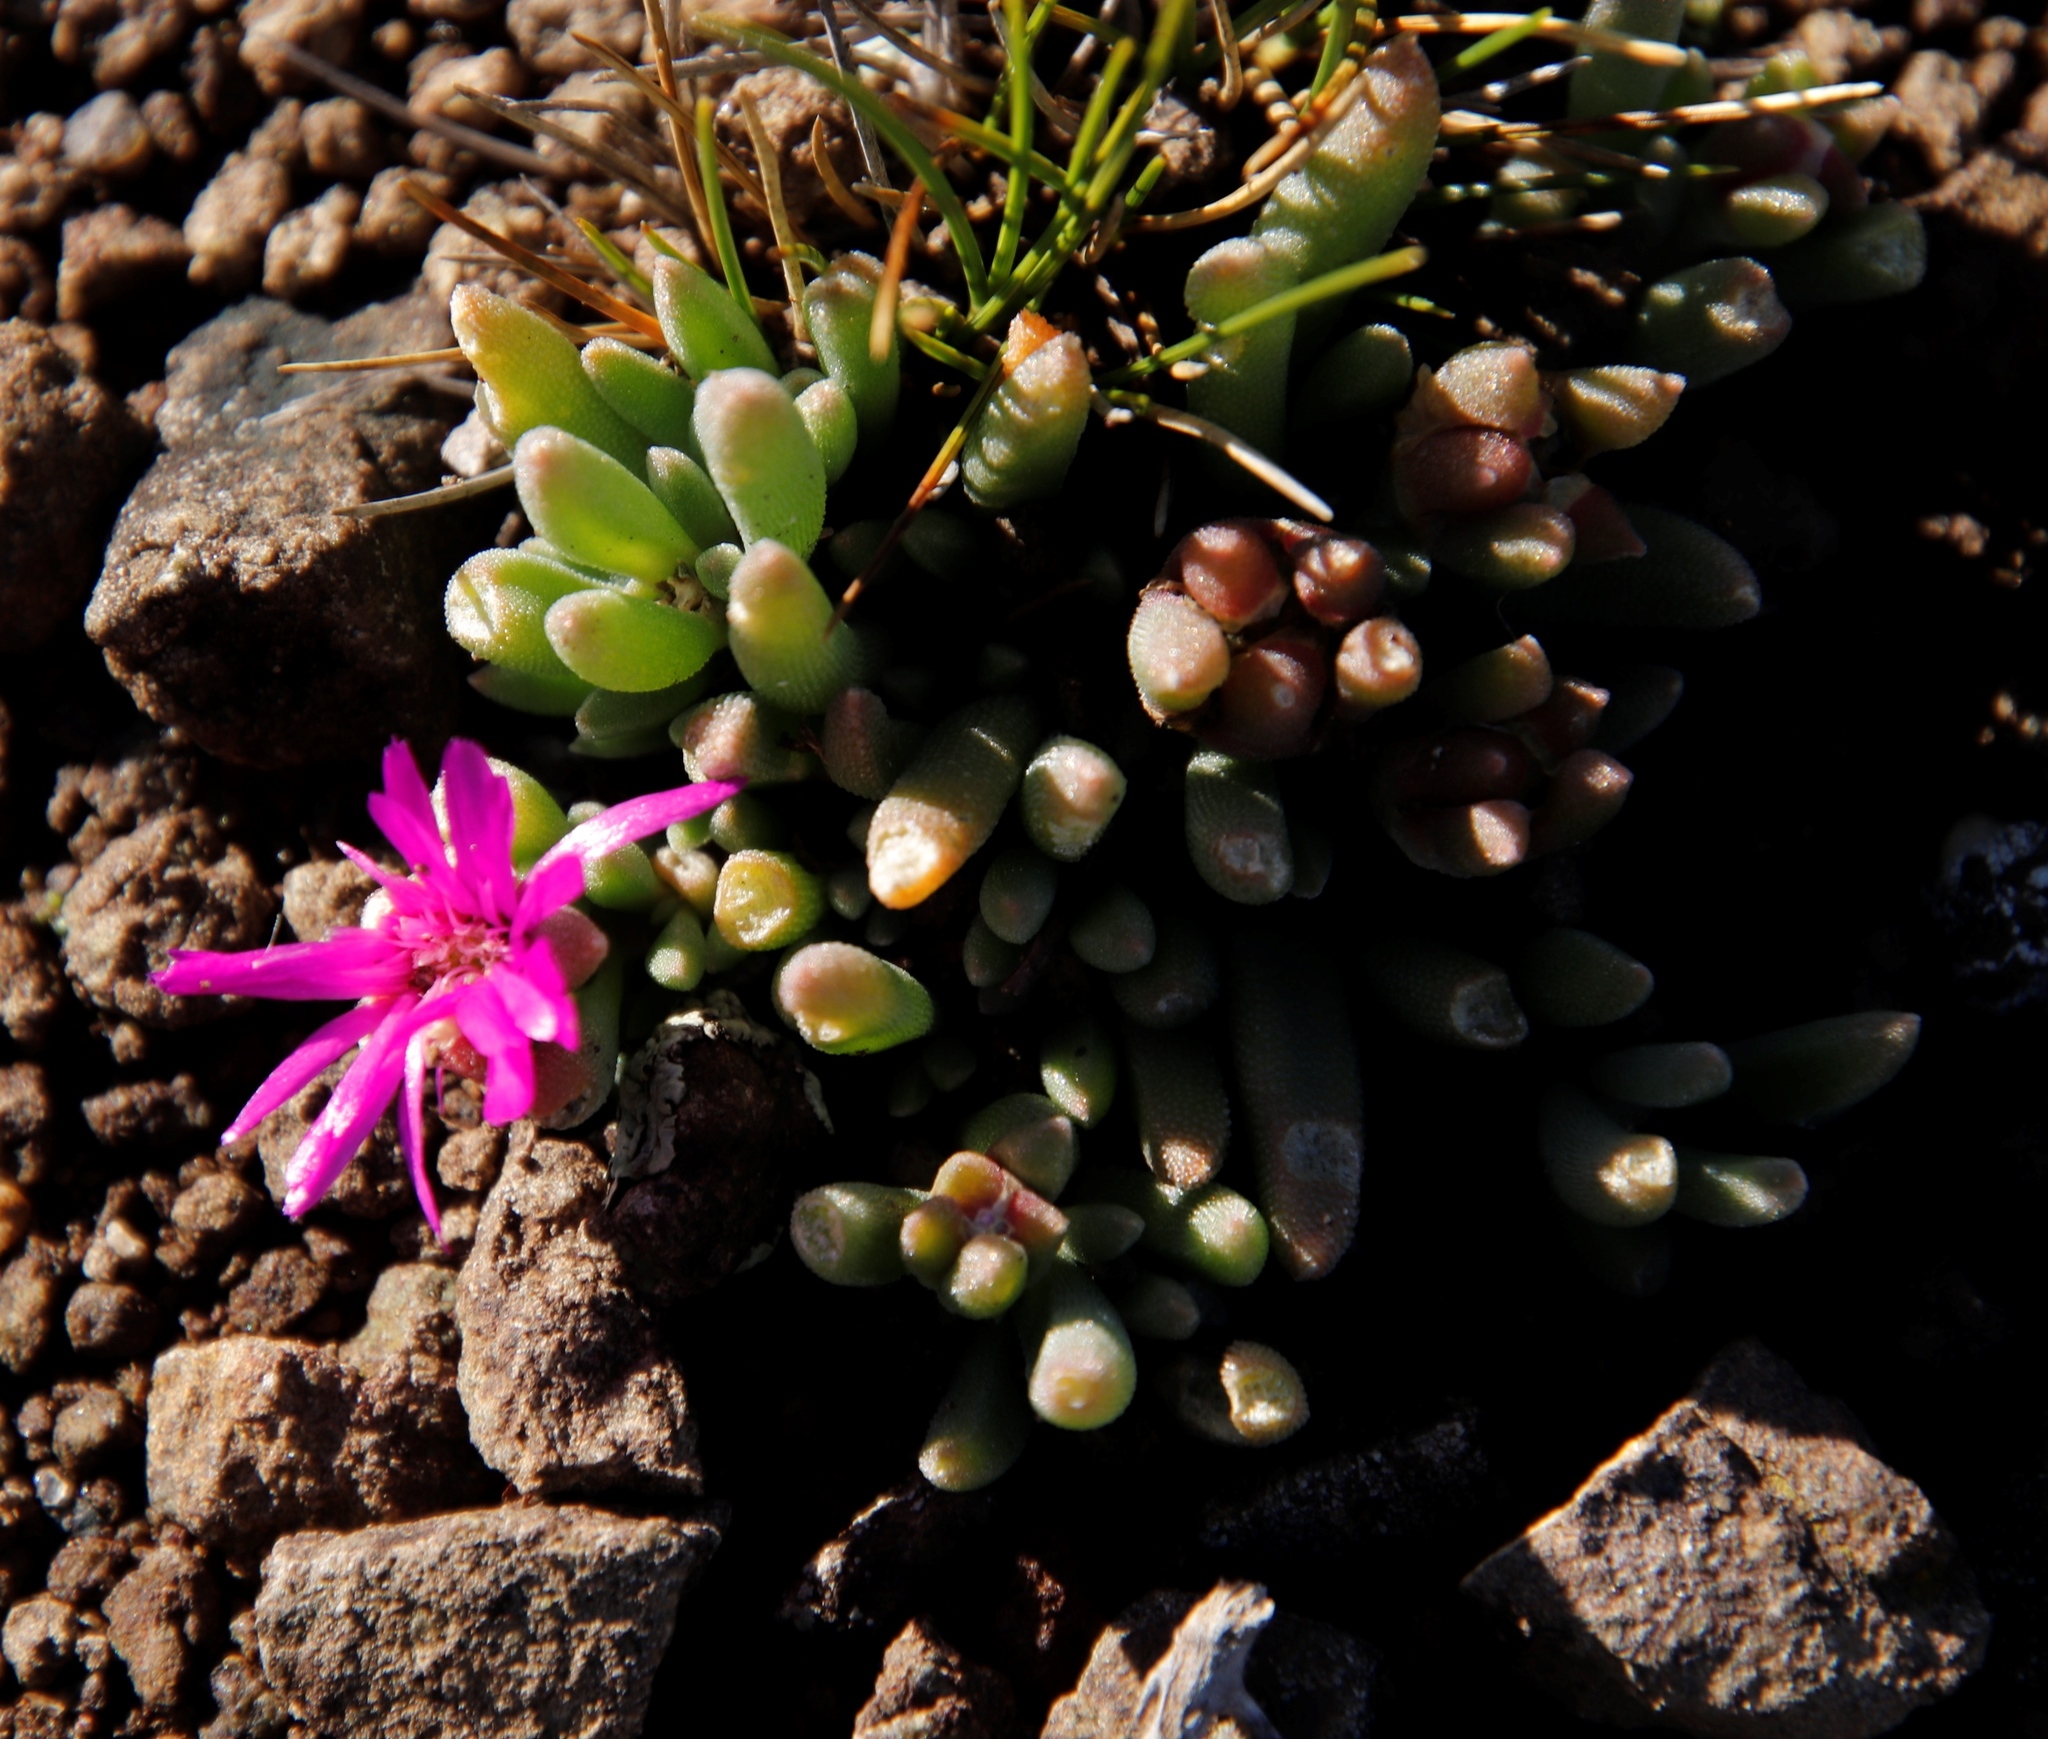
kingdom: Plantae
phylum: Tracheophyta
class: Magnoliopsida
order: Caryophyllales
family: Aizoaceae
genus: Delosperma
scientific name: Delosperma basuticum
